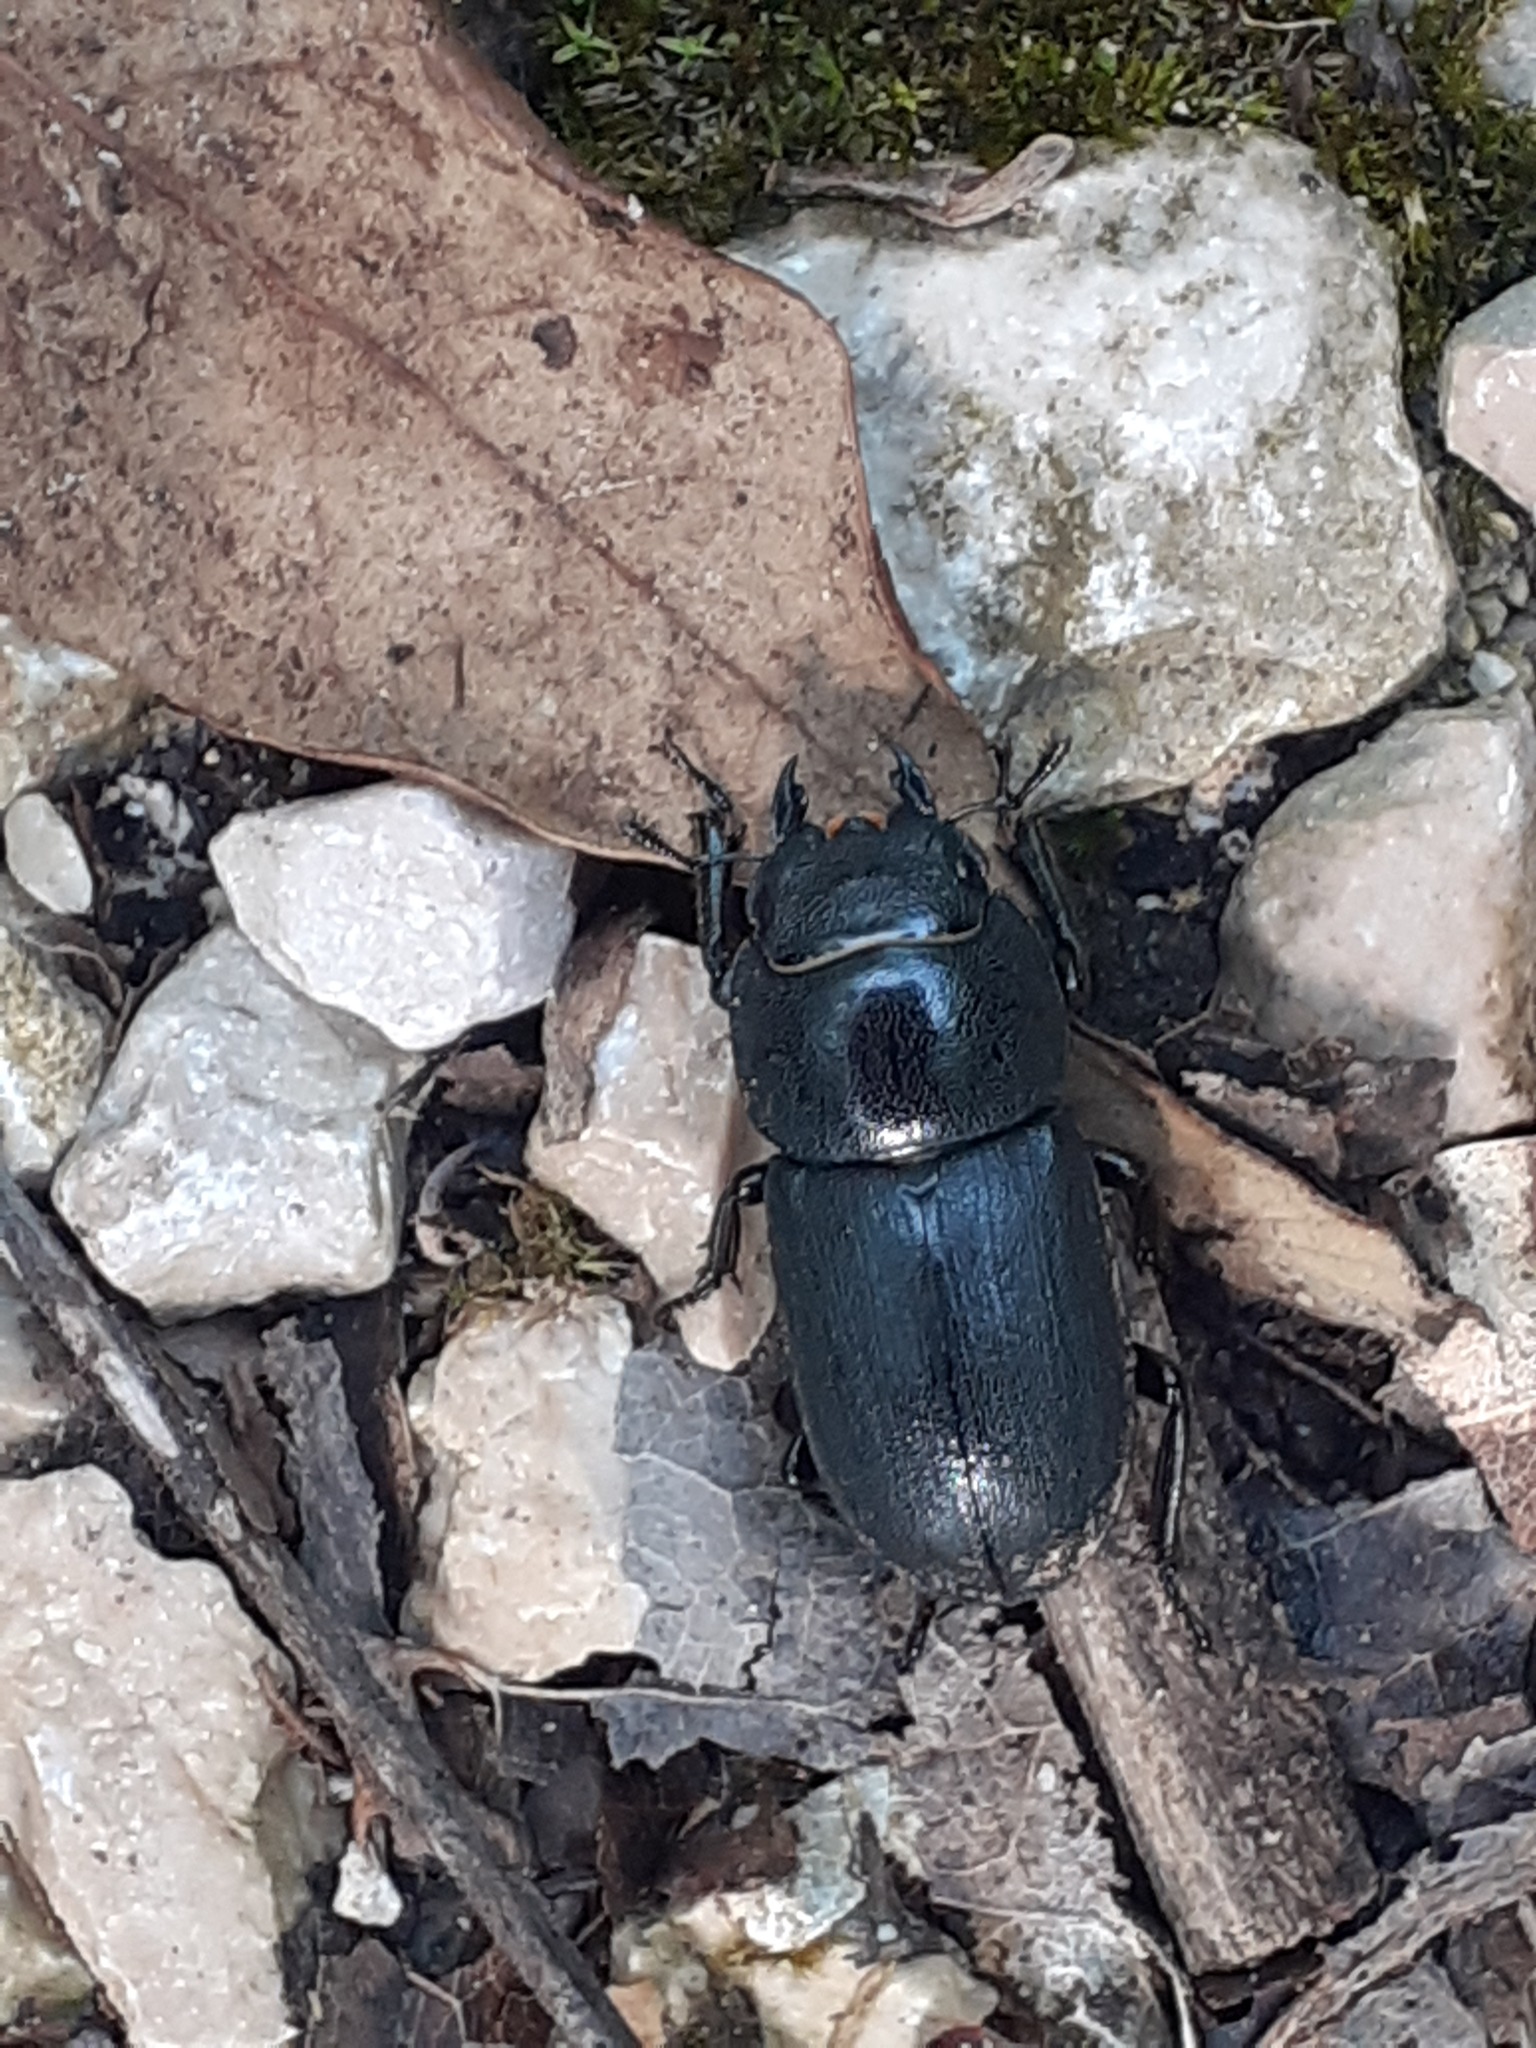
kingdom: Animalia
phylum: Arthropoda
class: Insecta
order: Coleoptera
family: Lucanidae
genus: Dorcus
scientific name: Dorcus parallelipipedus
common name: Lesser stag beetle
